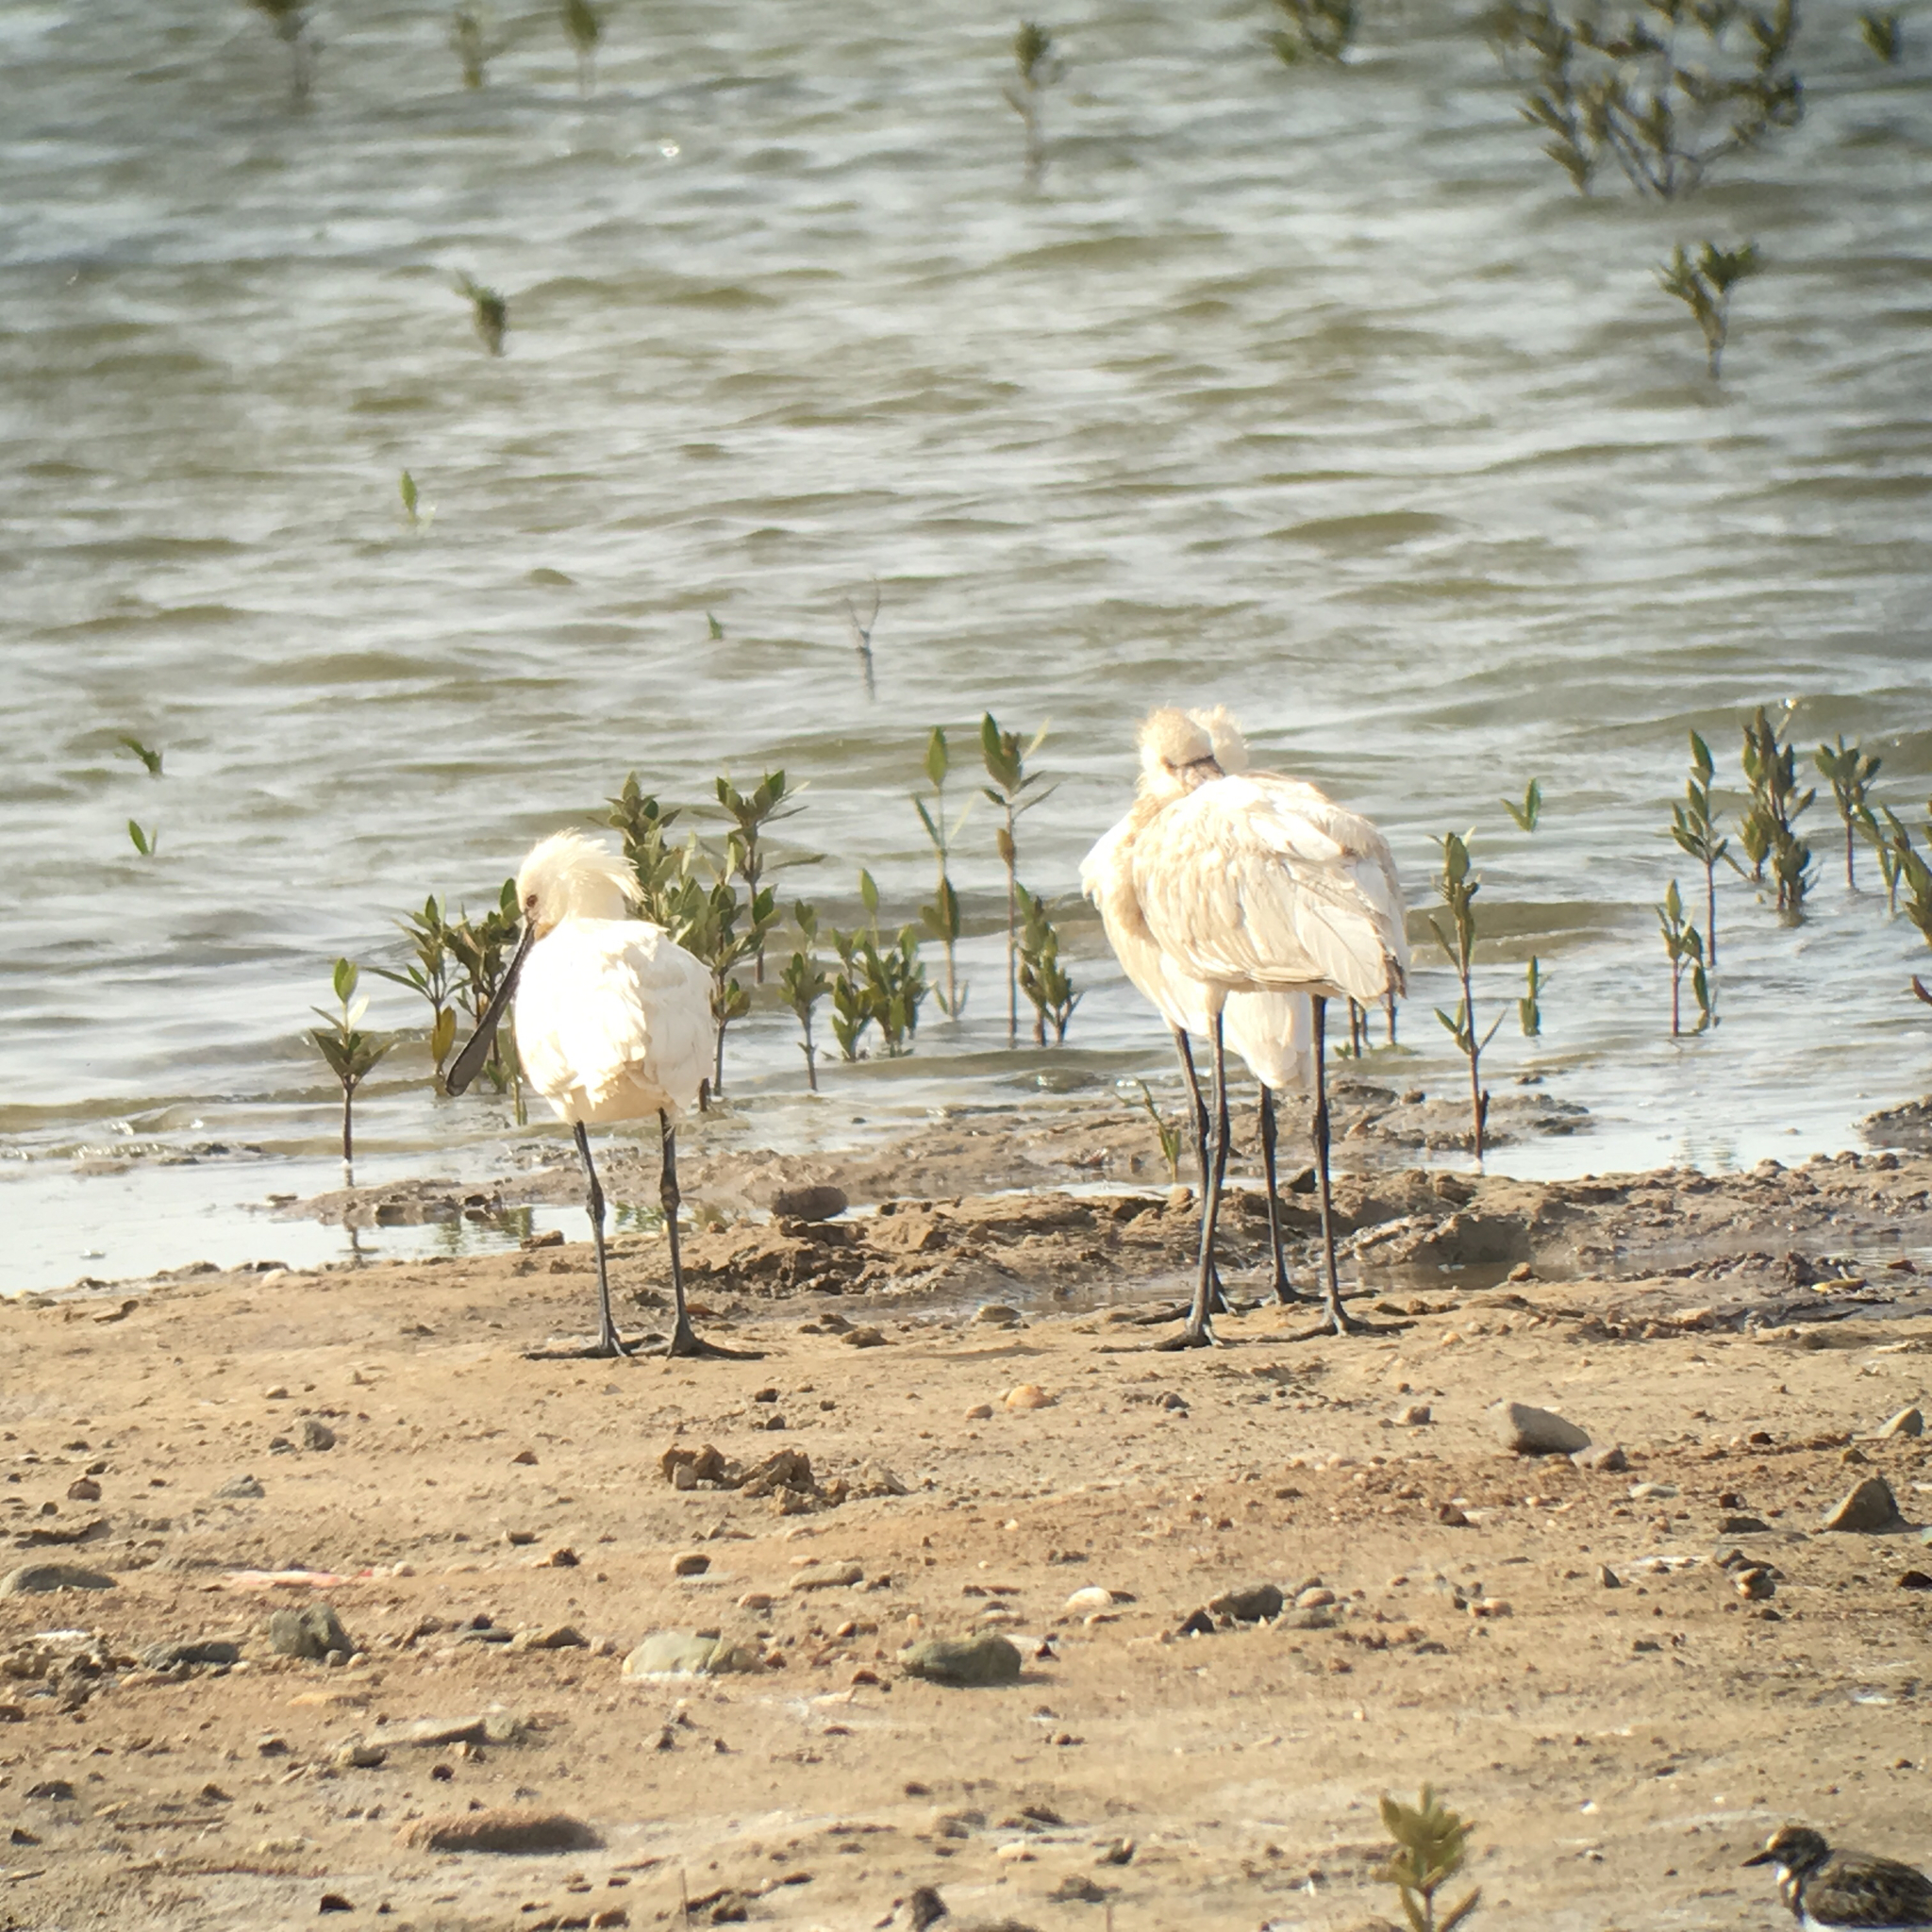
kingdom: Animalia
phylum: Chordata
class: Aves
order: Pelecaniformes
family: Threskiornithidae
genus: Platalea
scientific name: Platalea leucorodia
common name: Eurasian spoonbill
